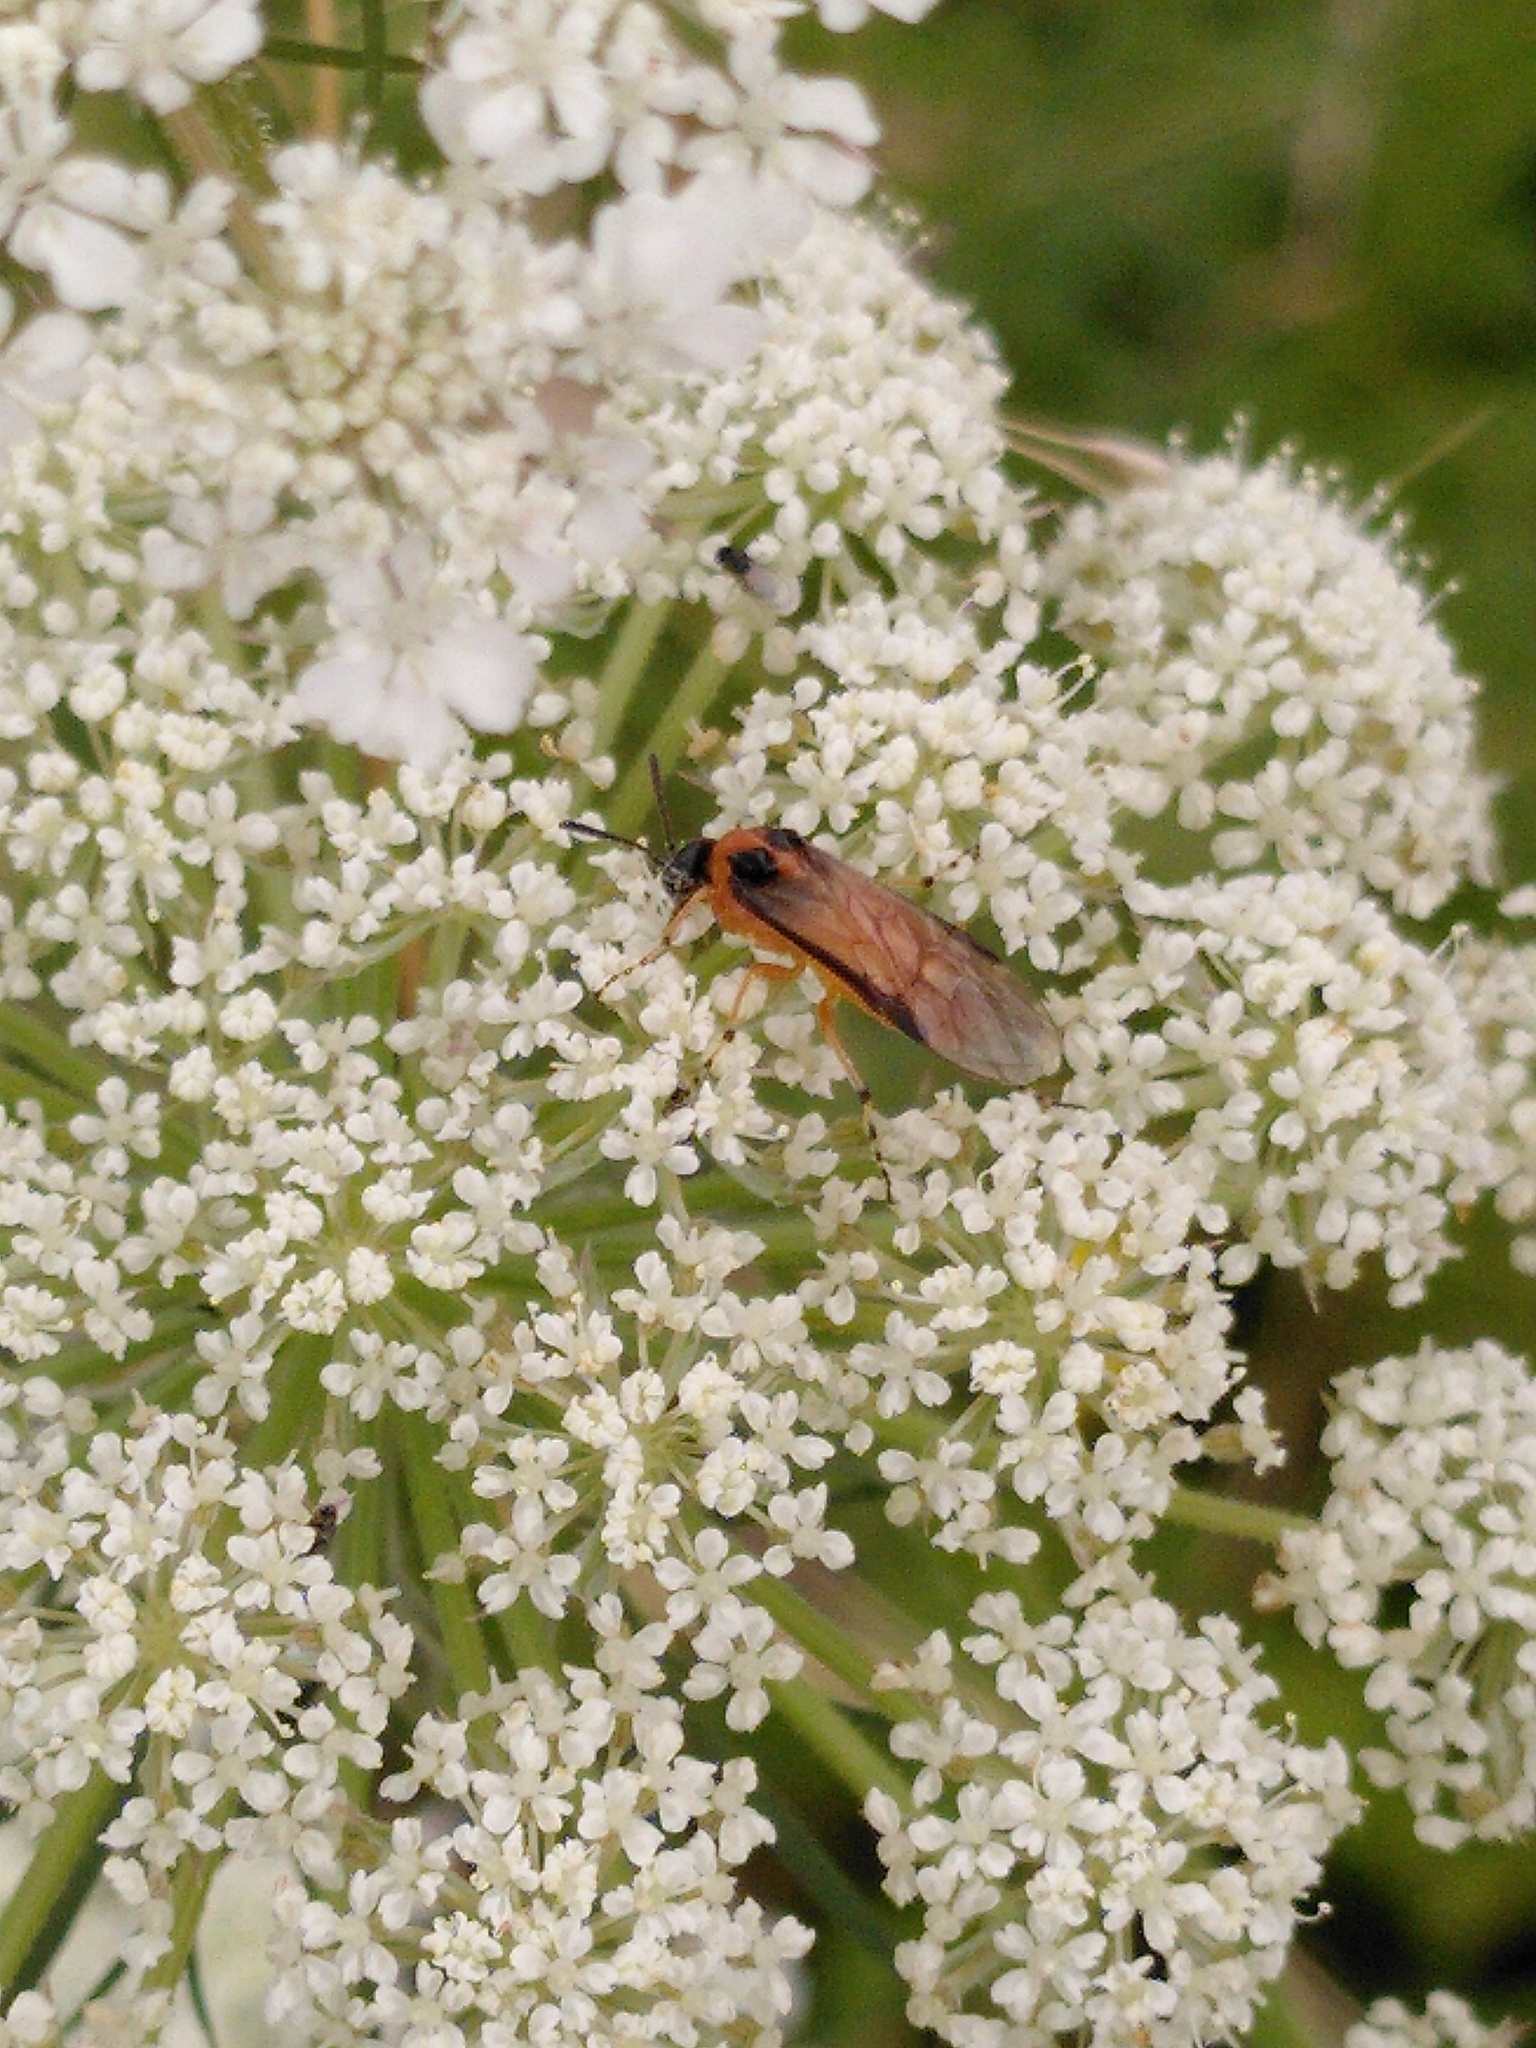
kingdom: Animalia
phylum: Arthropoda
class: Insecta
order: Hymenoptera
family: Tenthredinidae
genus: Athalia
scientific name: Athalia rosae
